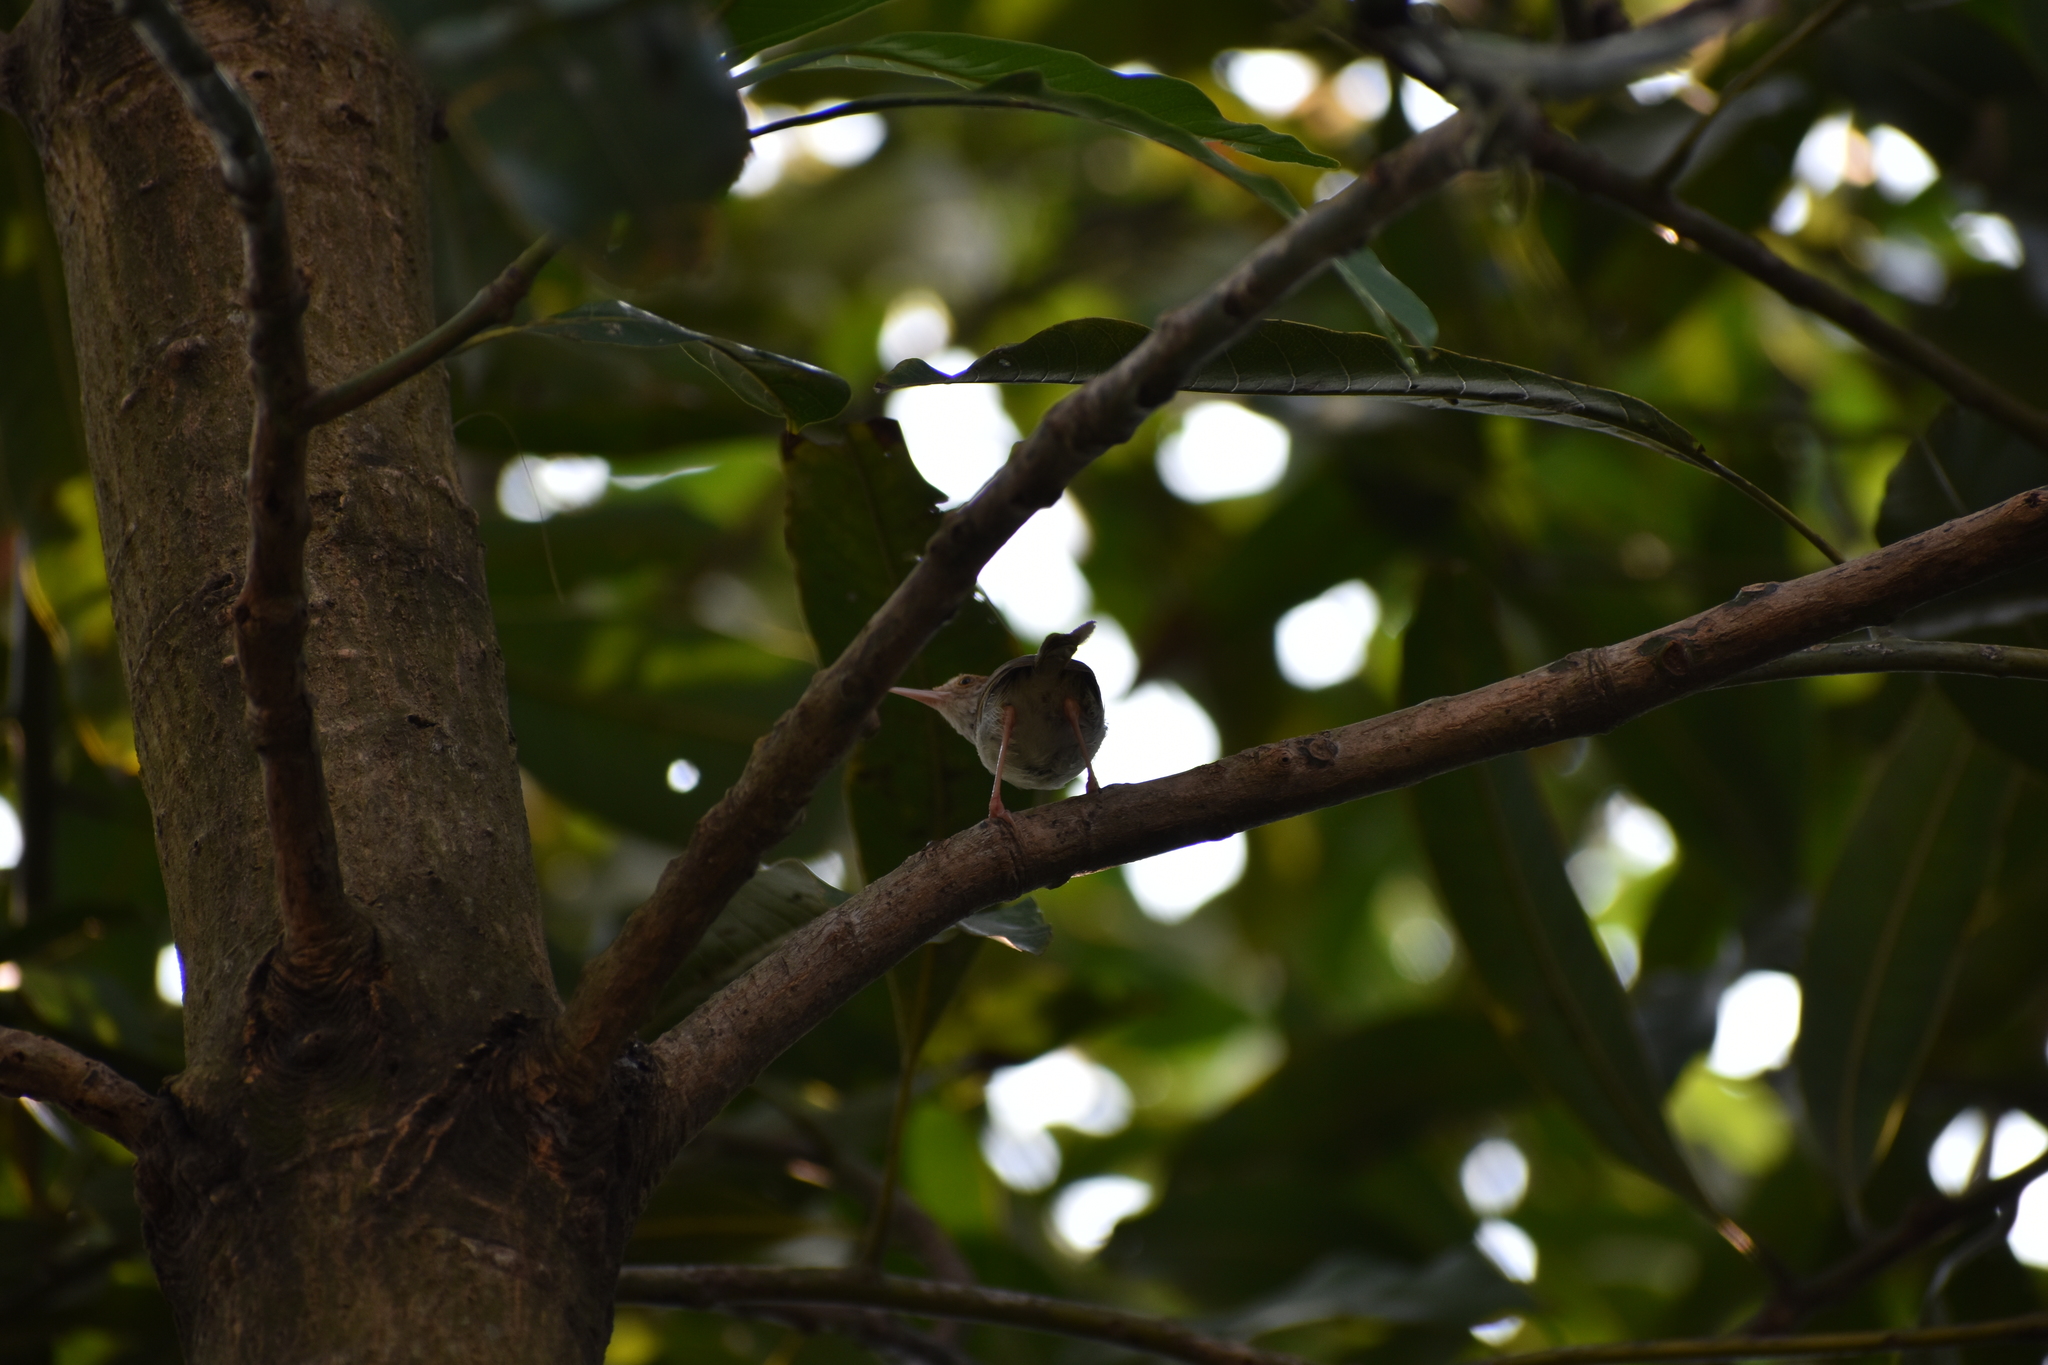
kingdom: Animalia
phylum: Chordata
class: Aves
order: Passeriformes
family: Cisticolidae
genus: Orthotomus
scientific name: Orthotomus sutorius
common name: Common tailorbird
